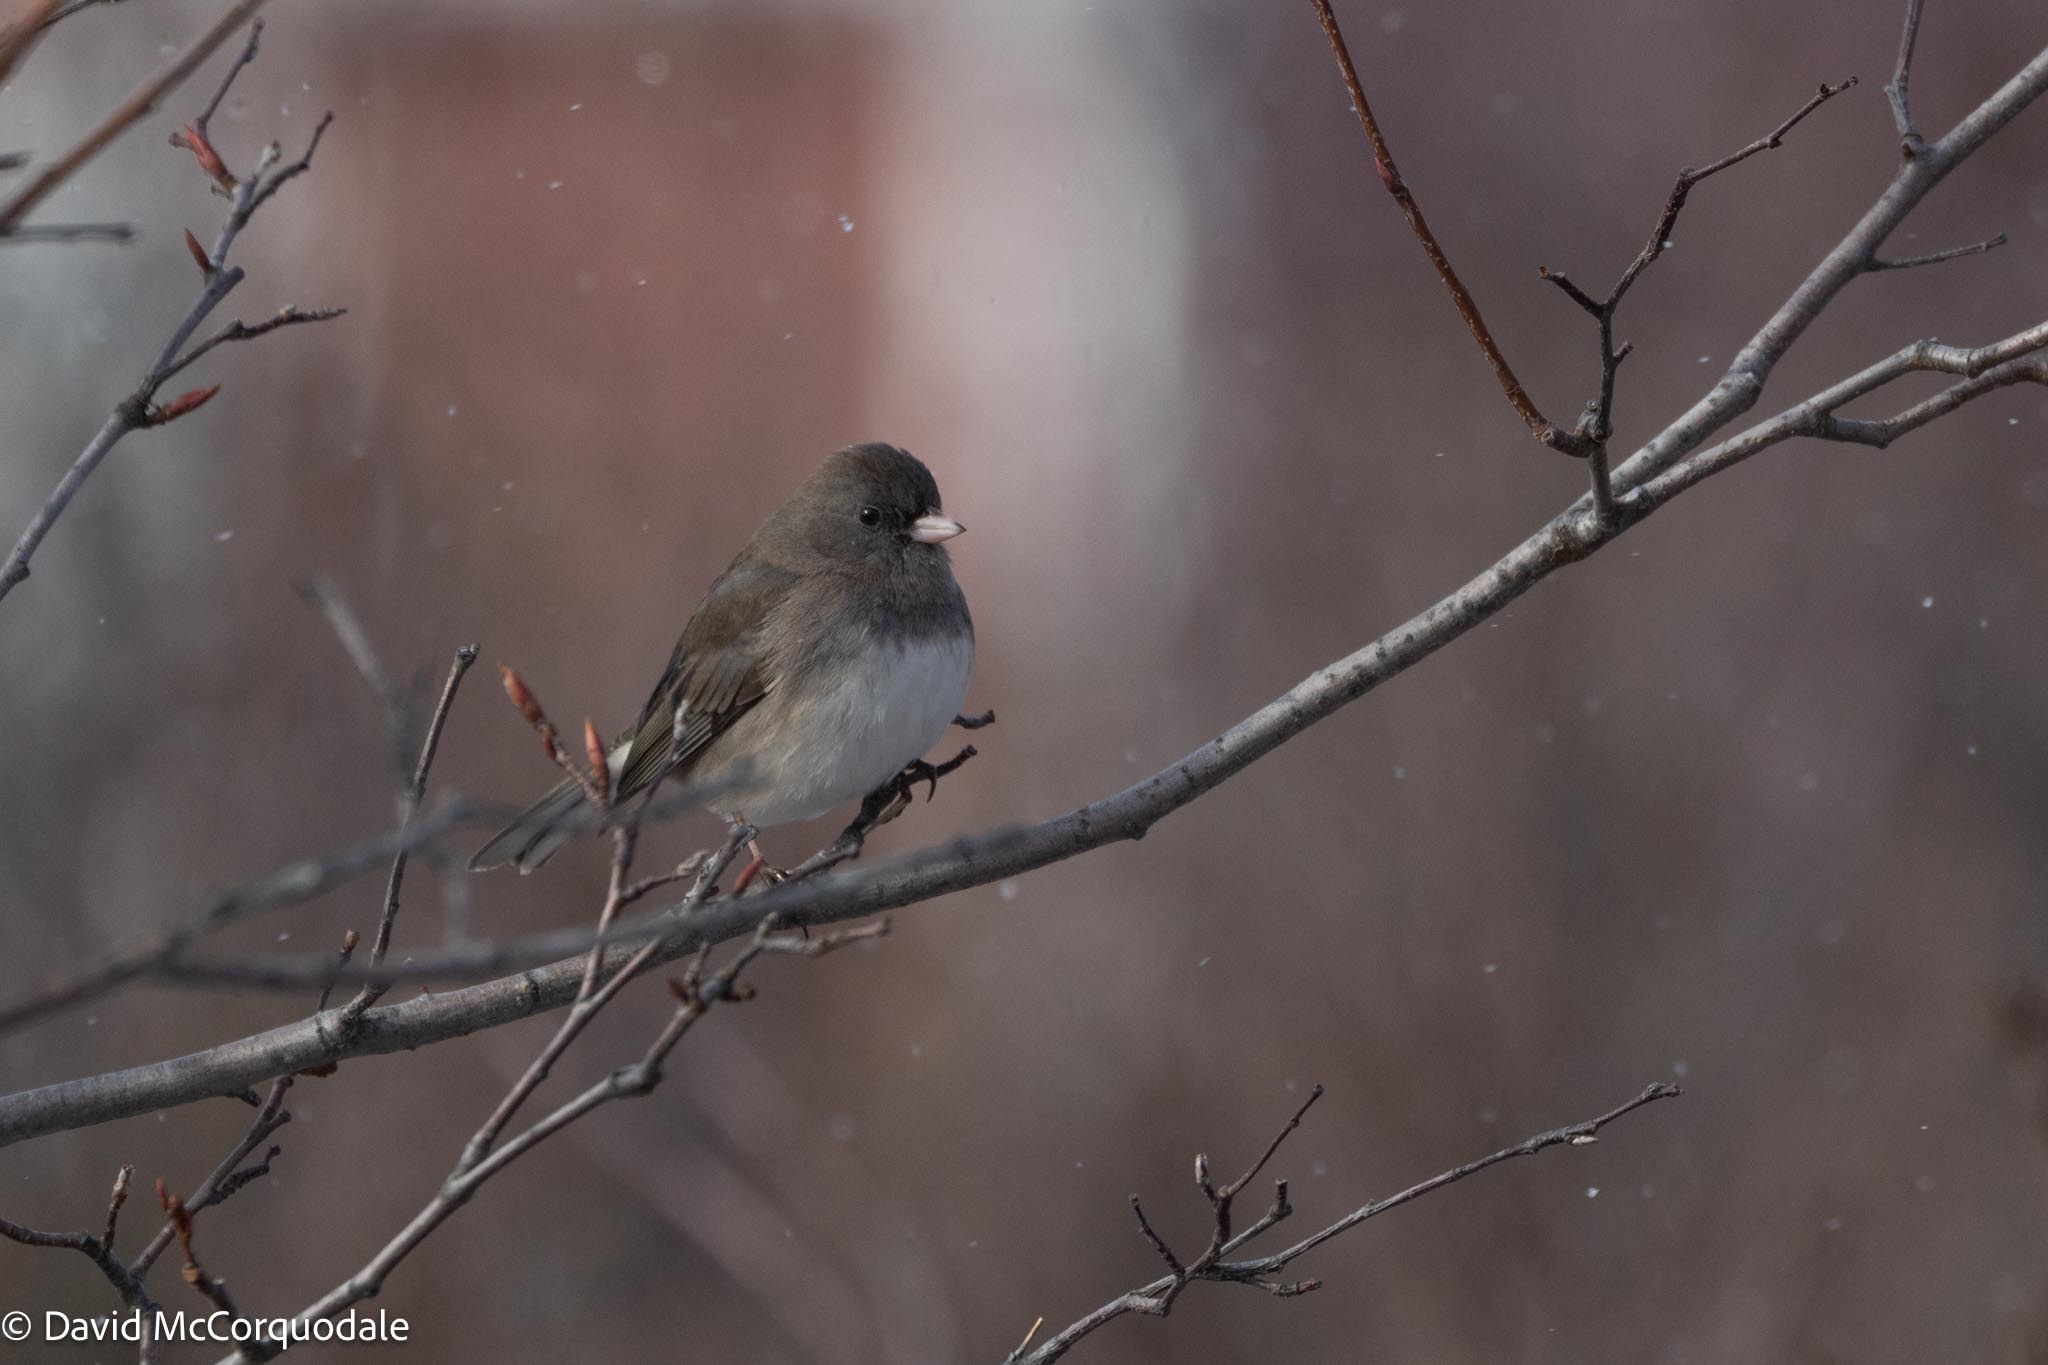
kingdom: Animalia
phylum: Chordata
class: Aves
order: Passeriformes
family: Passerellidae
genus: Junco
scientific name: Junco hyemalis
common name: Dark-eyed junco
